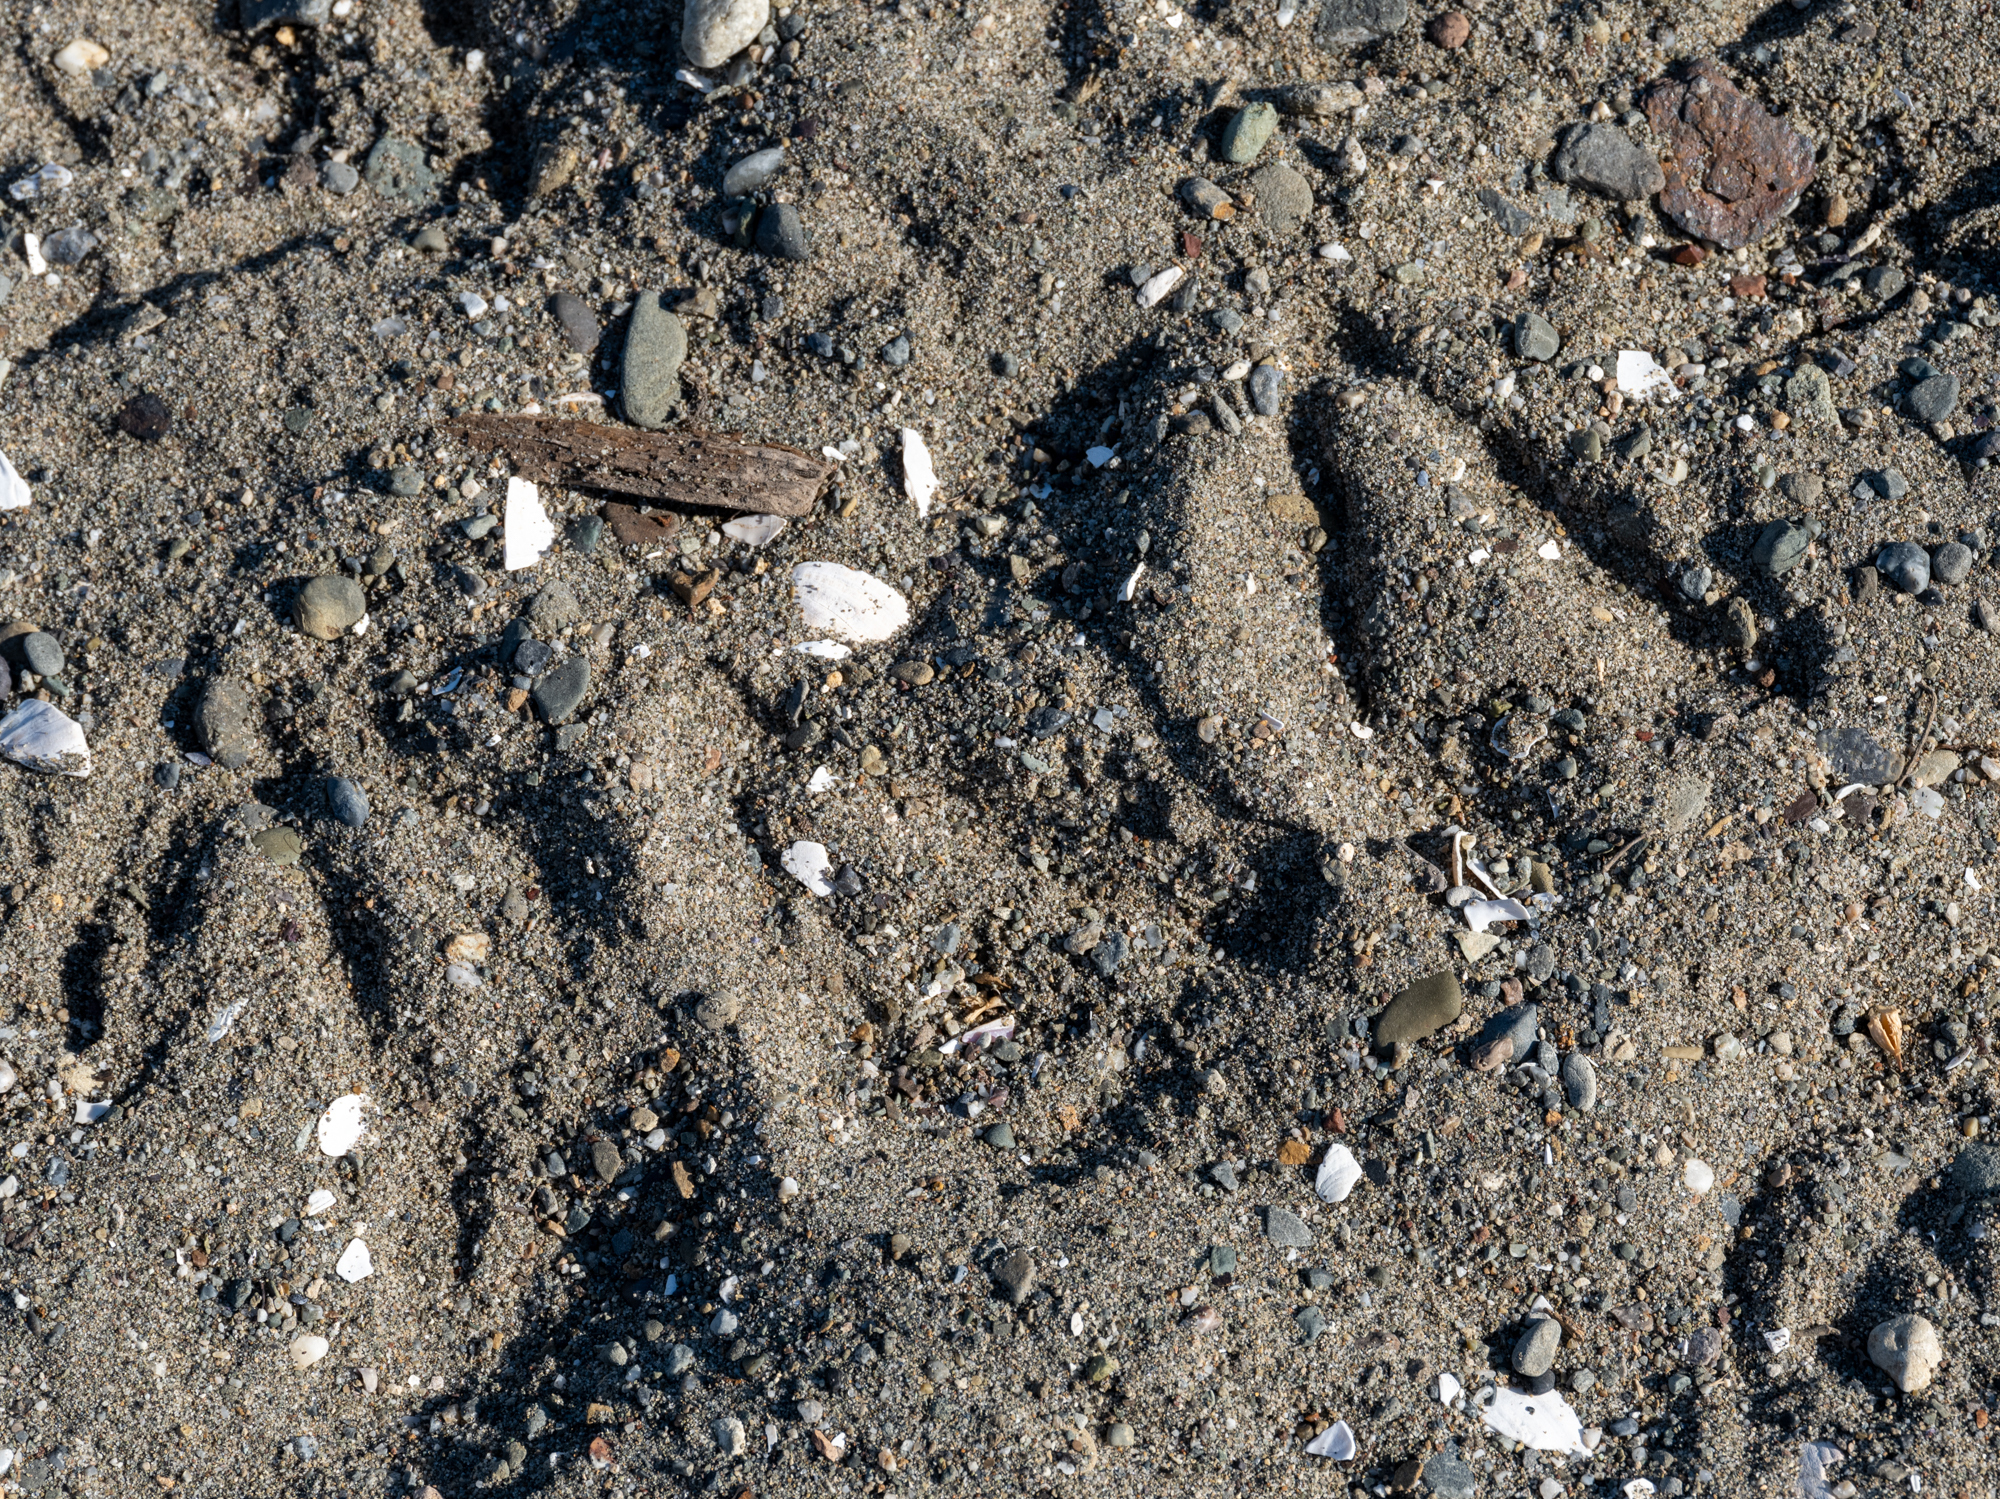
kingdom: Animalia
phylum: Chordata
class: Aves
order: Anseriformes
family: Anatidae
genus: Branta
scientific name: Branta canadensis
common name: Canada goose
